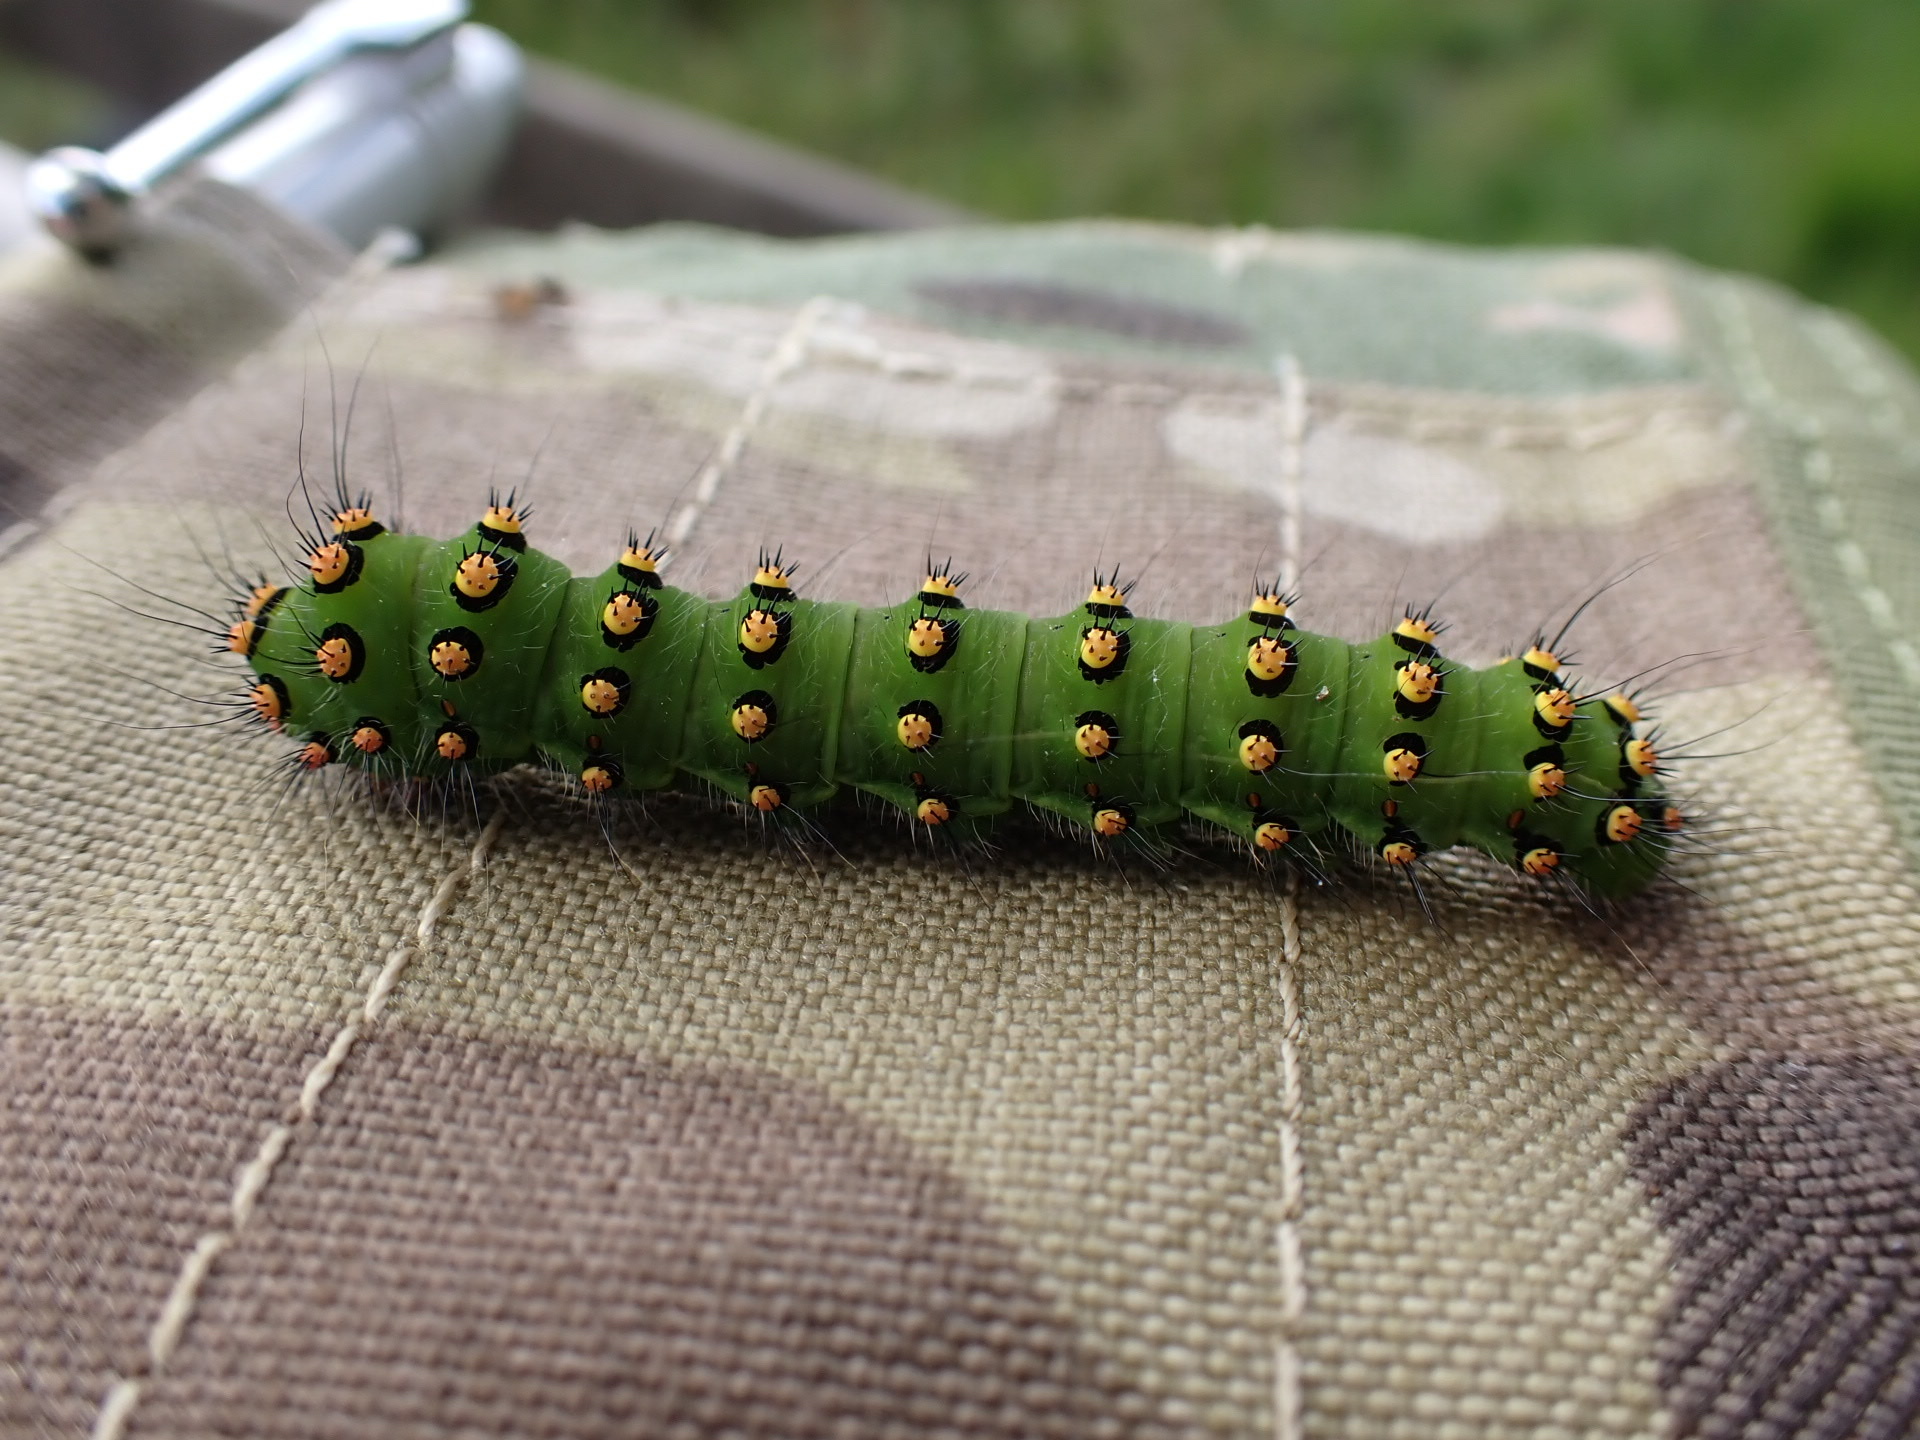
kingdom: Animalia
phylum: Arthropoda
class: Insecta
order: Lepidoptera
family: Saturniidae
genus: Saturnia
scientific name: Saturnia pavonia
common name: Emperor moth
